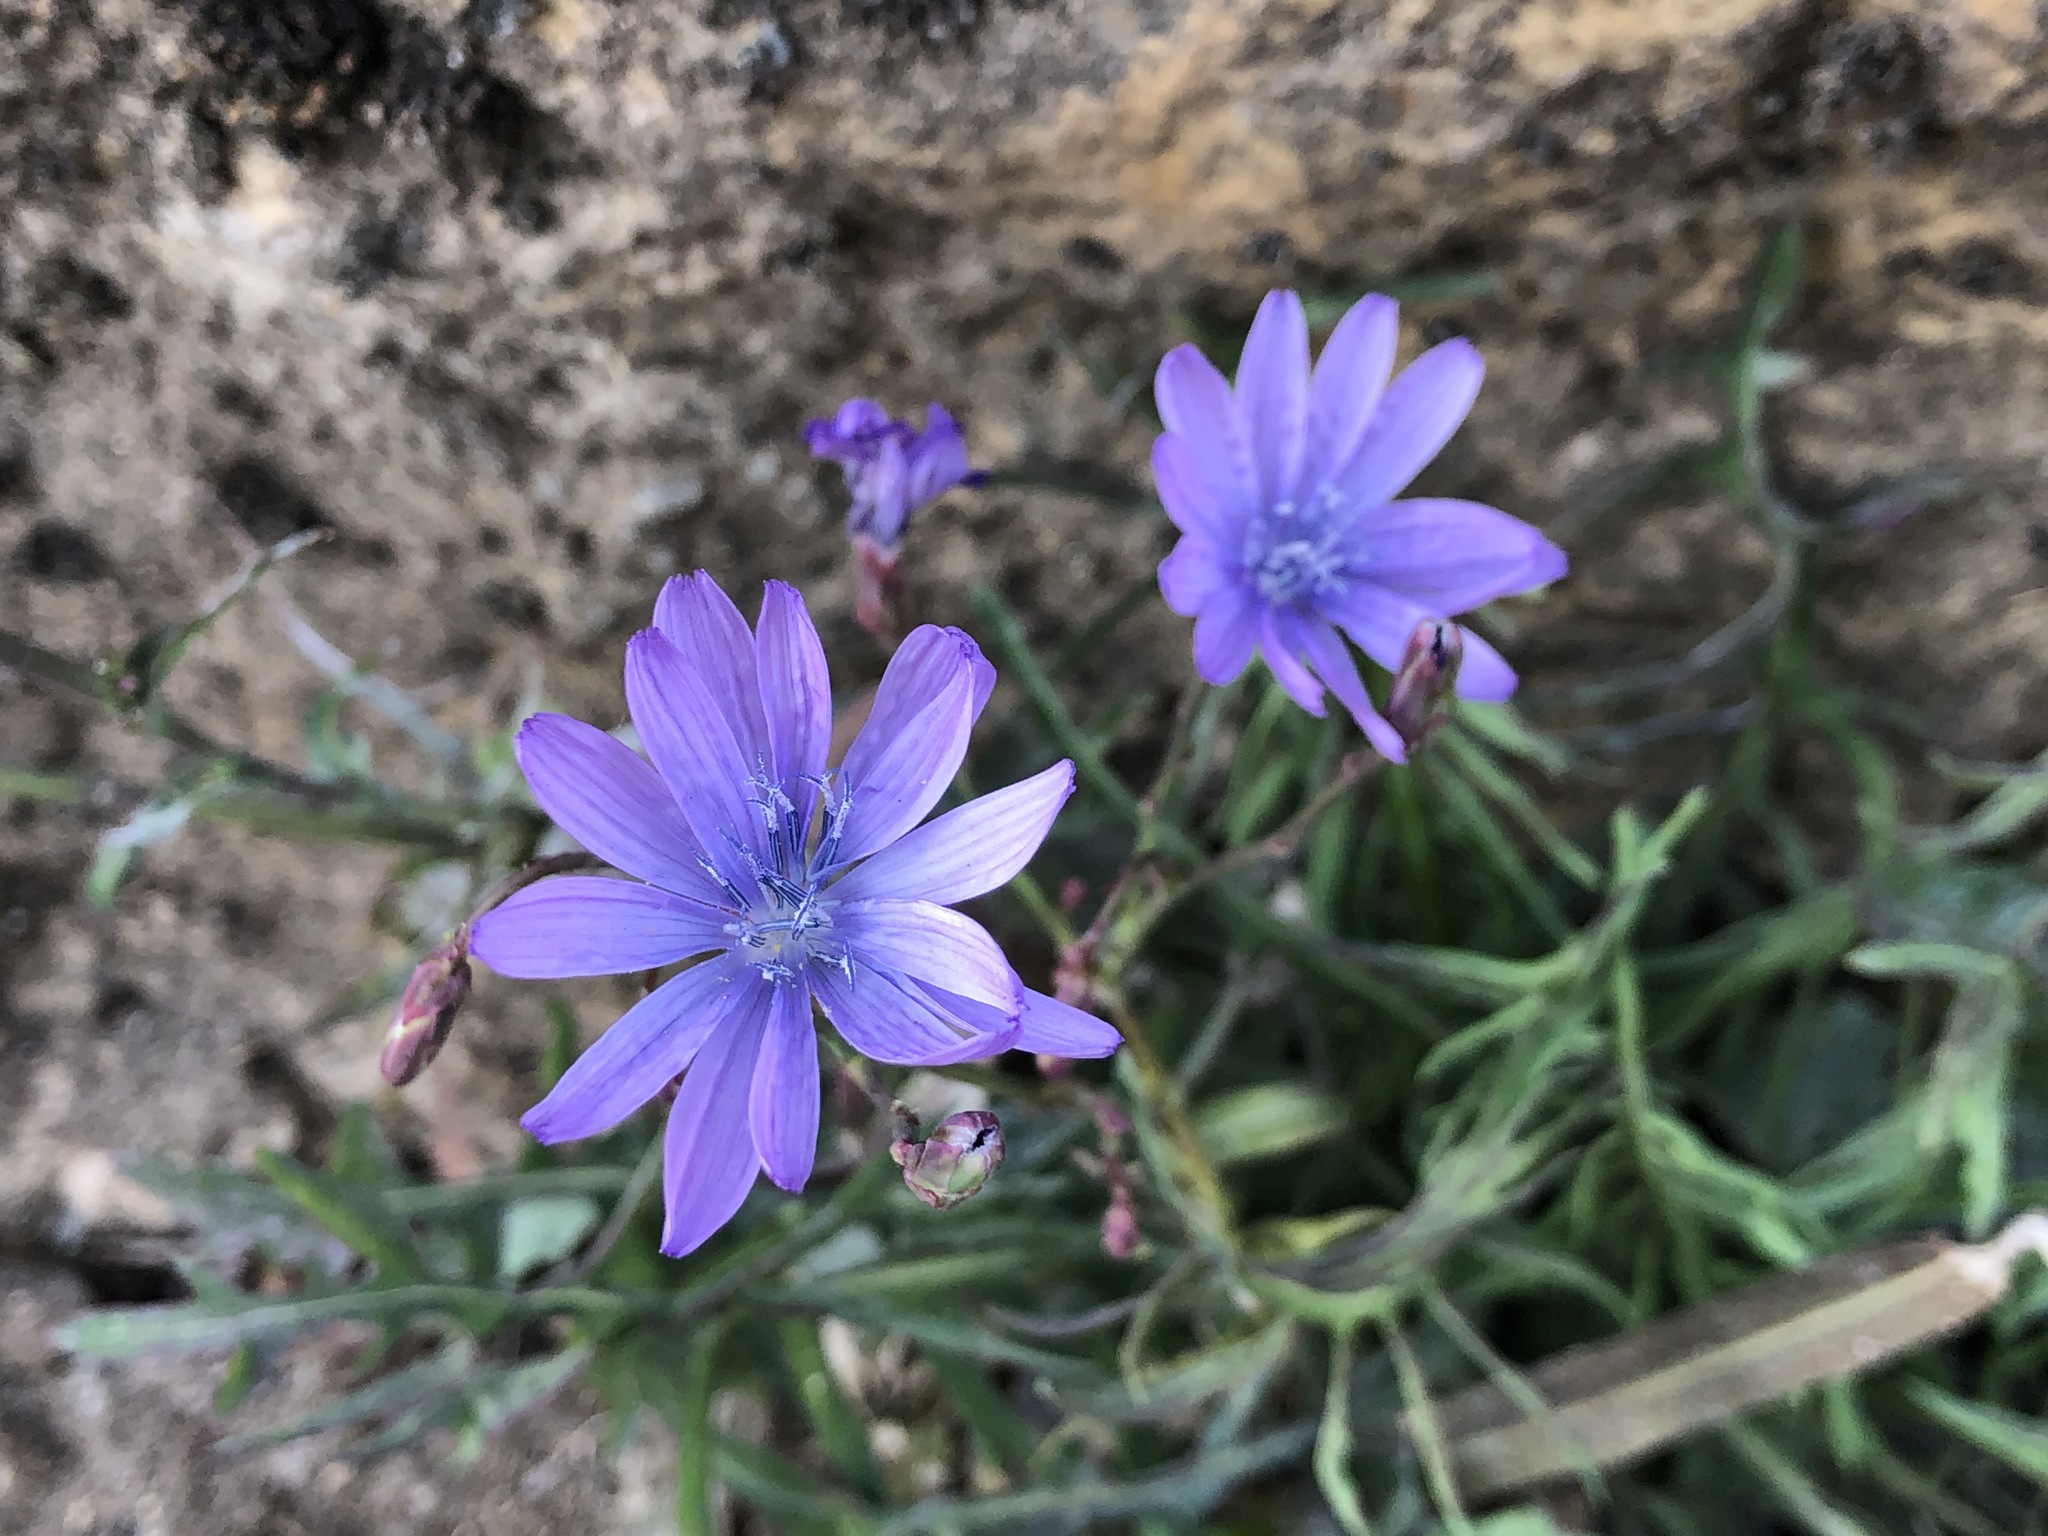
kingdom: Plantae
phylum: Tracheophyta
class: Magnoliopsida
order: Asterales
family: Asteraceae
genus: Lactuca
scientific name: Lactuca perennis
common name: Mountain lettuce
